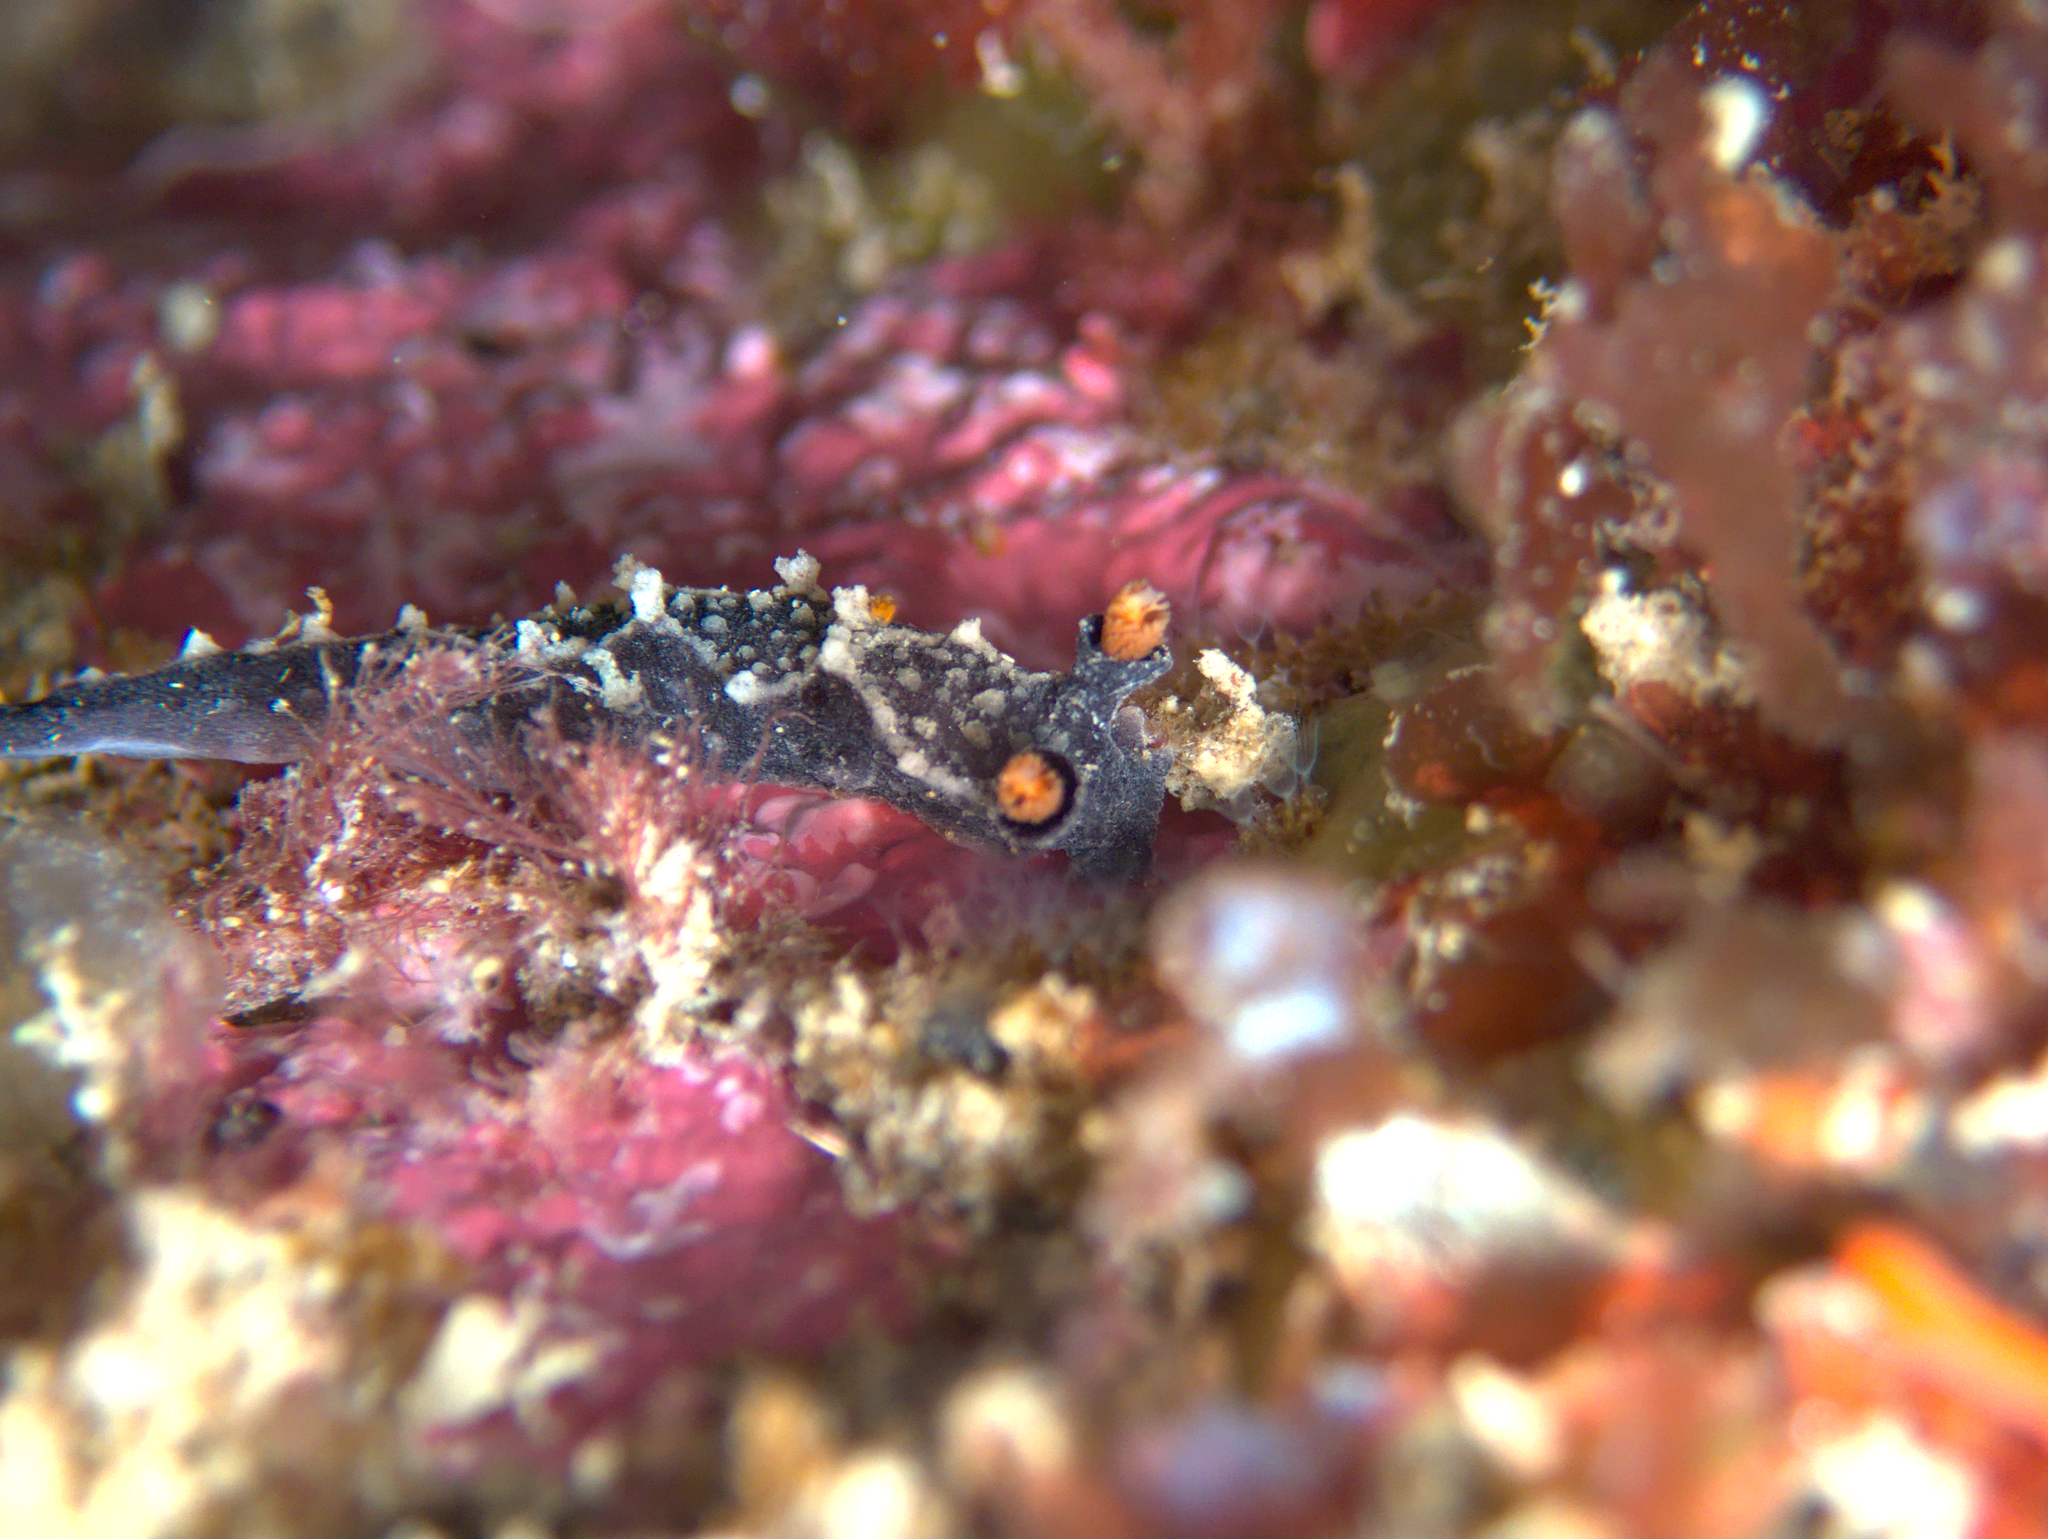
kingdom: Animalia
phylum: Mollusca
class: Gastropoda
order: Nudibranchia
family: Tritoniidae
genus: Tritonia
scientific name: Tritonia flemingi
